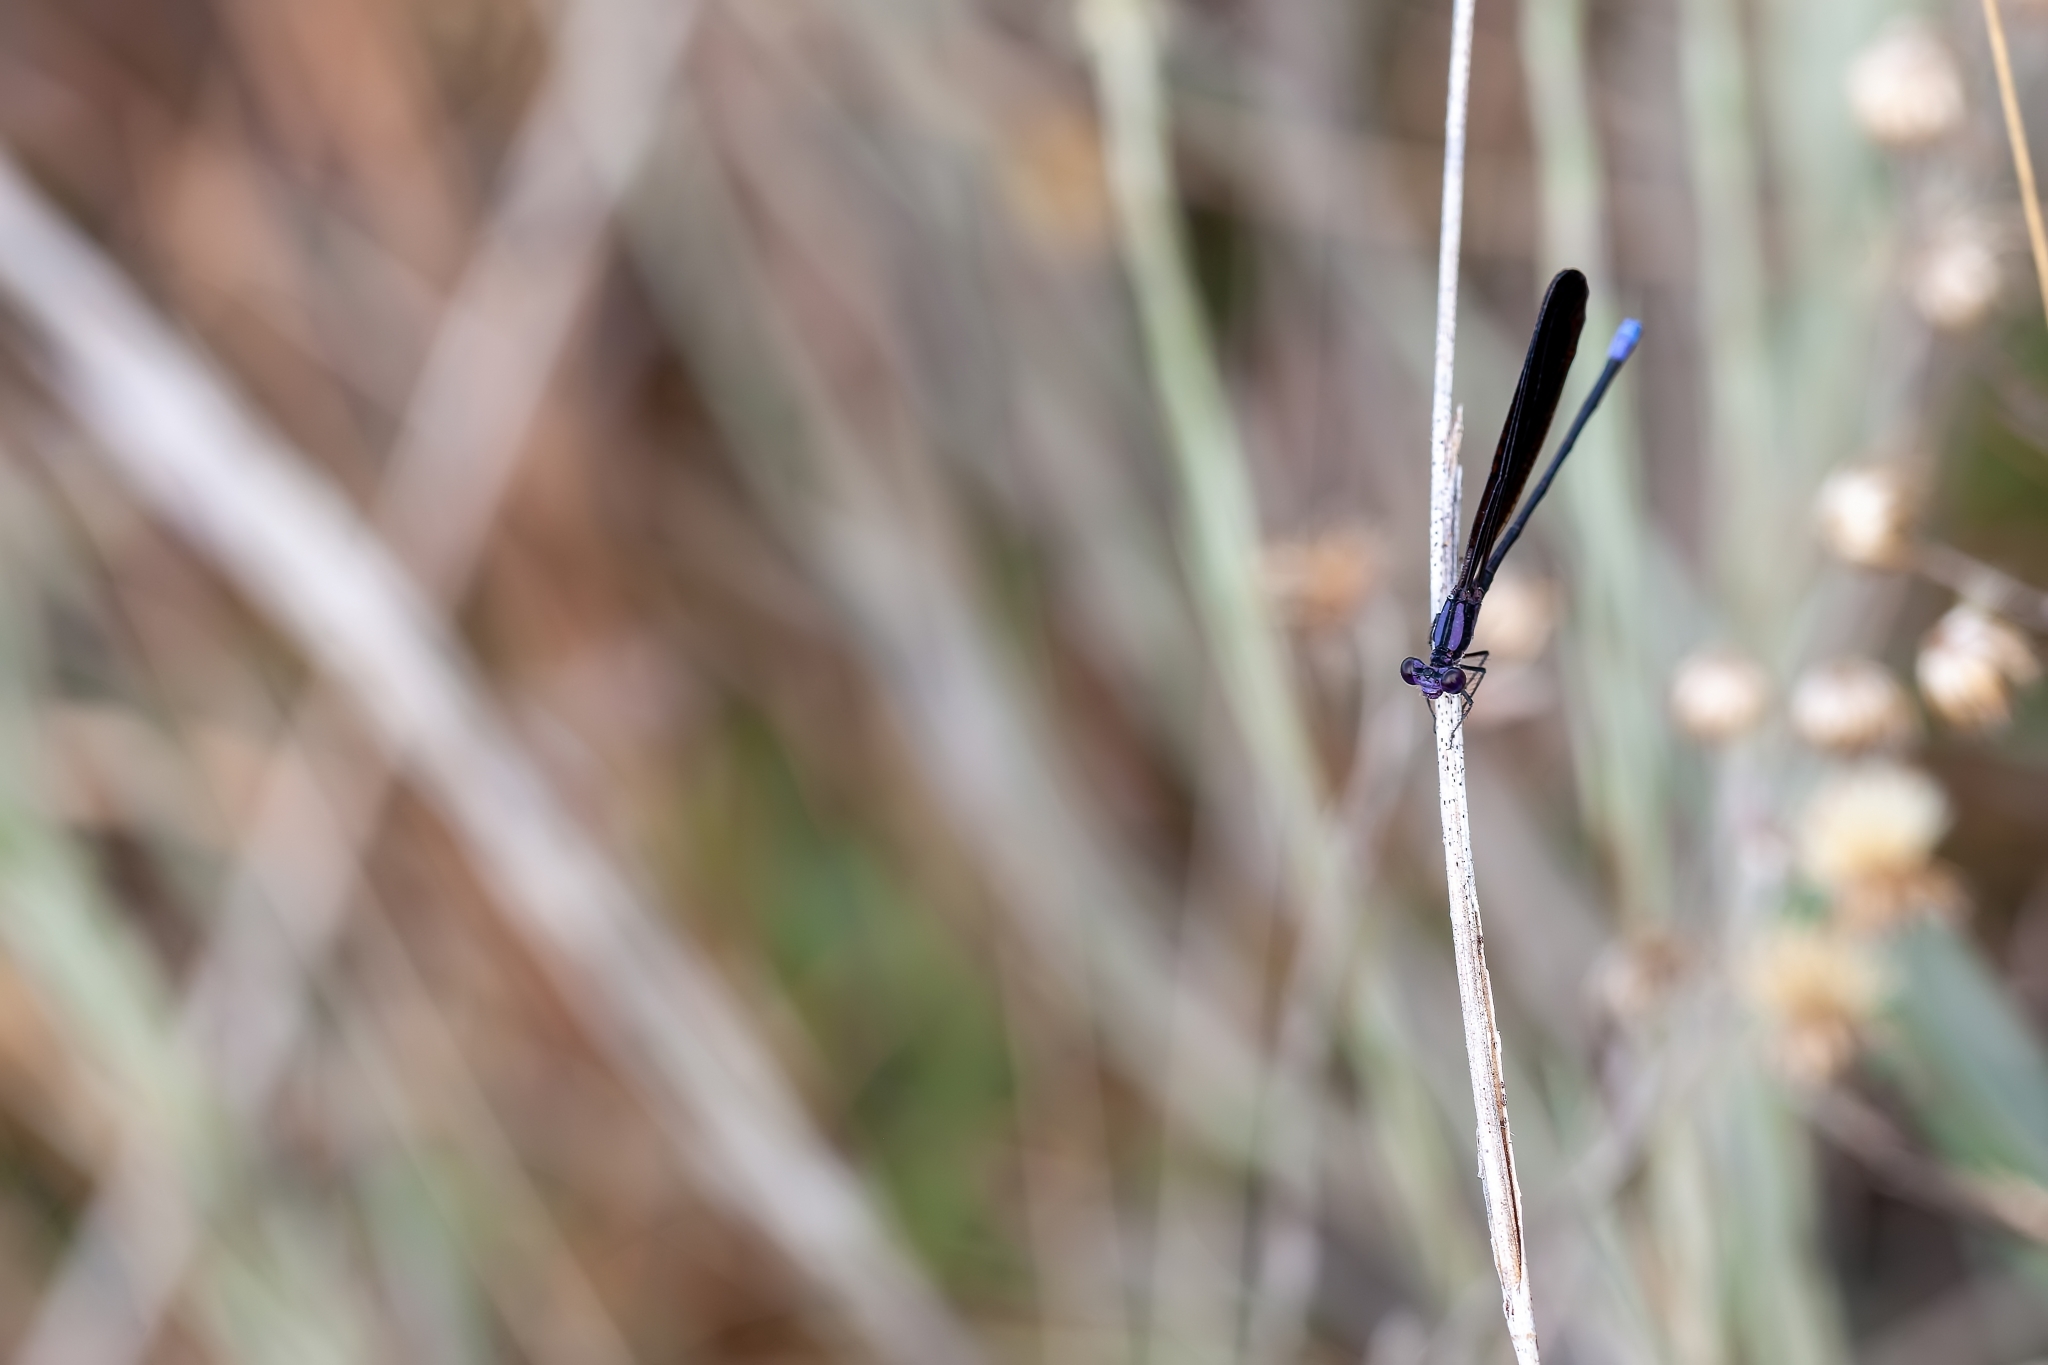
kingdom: Animalia
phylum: Arthropoda
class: Insecta
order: Odonata
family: Coenagrionidae
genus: Argia
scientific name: Argia fumipennis
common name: Variable dancer
